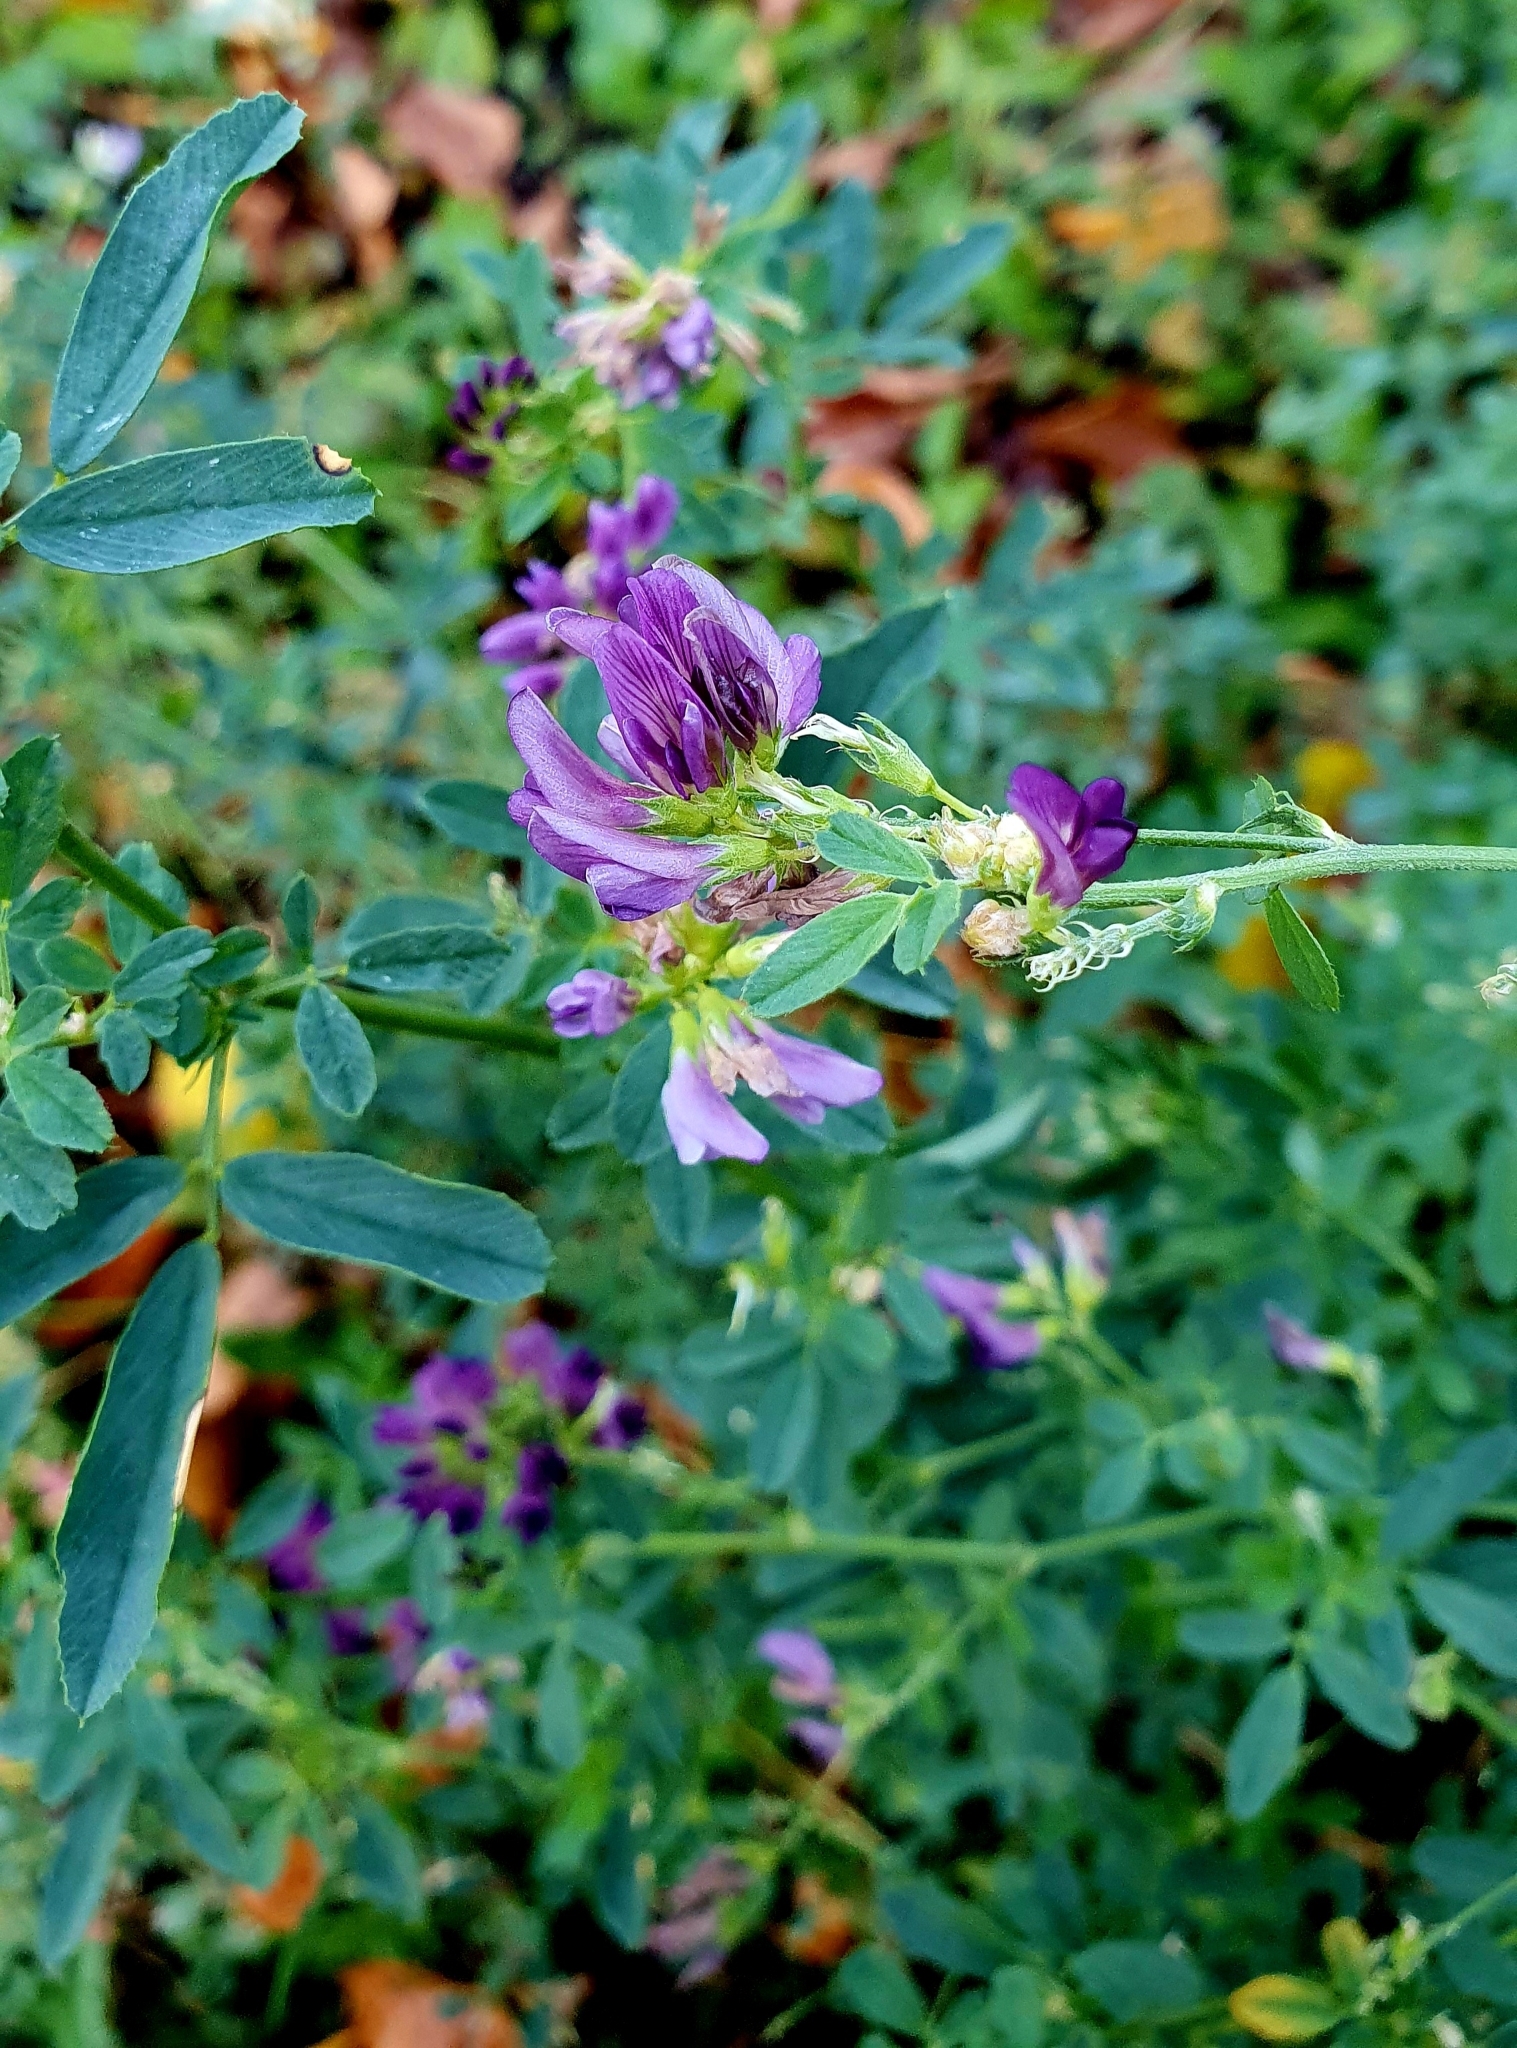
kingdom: Plantae
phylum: Tracheophyta
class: Magnoliopsida
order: Fabales
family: Fabaceae
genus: Medicago
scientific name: Medicago varia
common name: Sand lucerne
